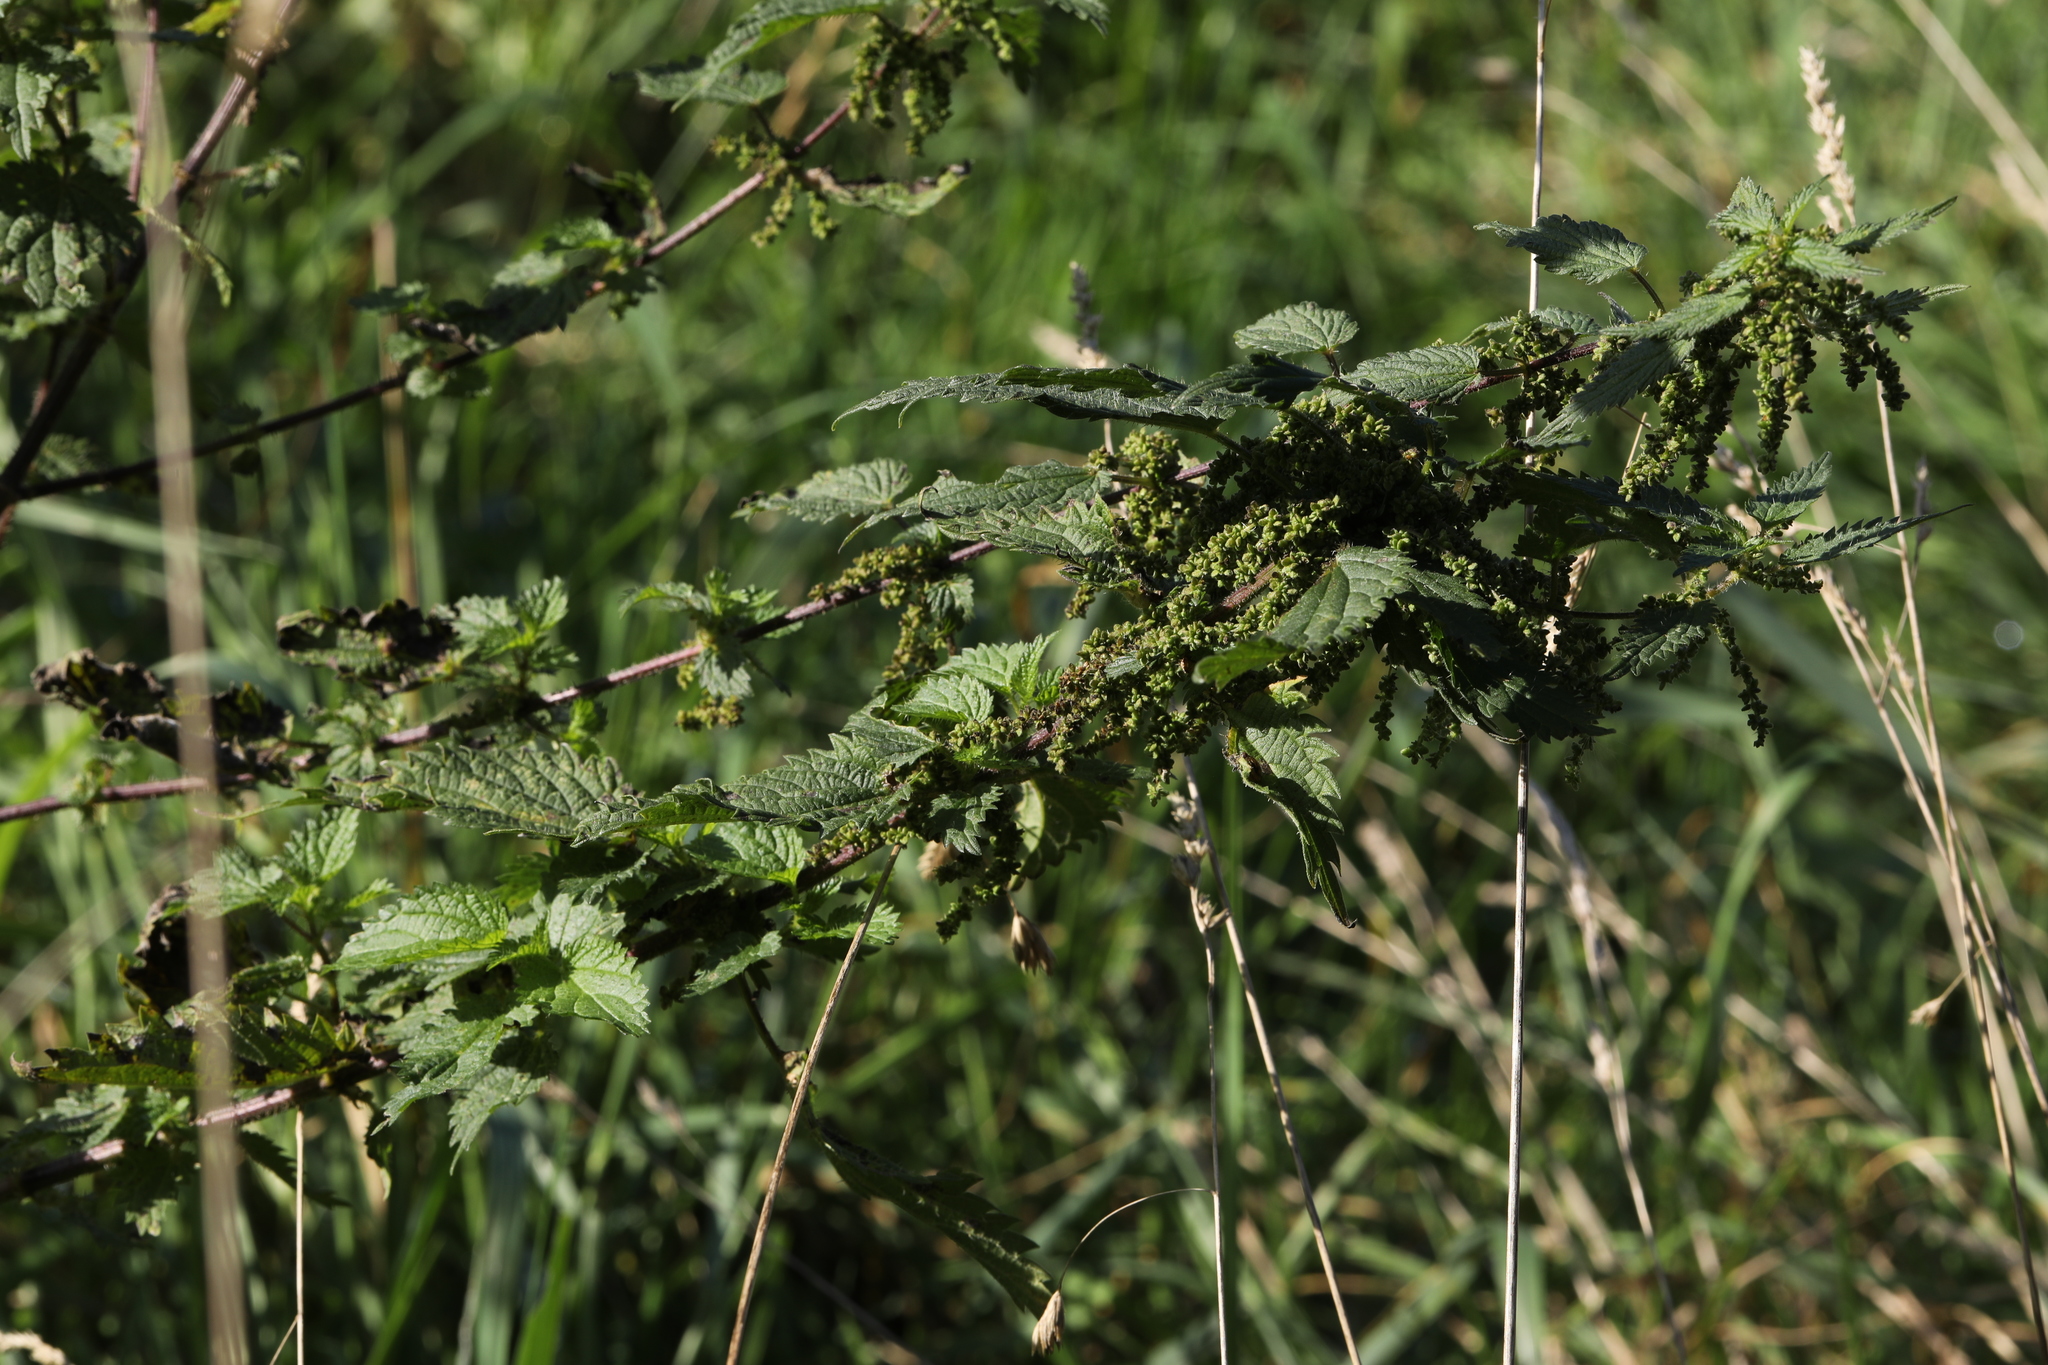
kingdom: Plantae
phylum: Tracheophyta
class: Magnoliopsida
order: Rosales
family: Urticaceae
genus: Urtica
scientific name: Urtica dioica
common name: Common nettle
